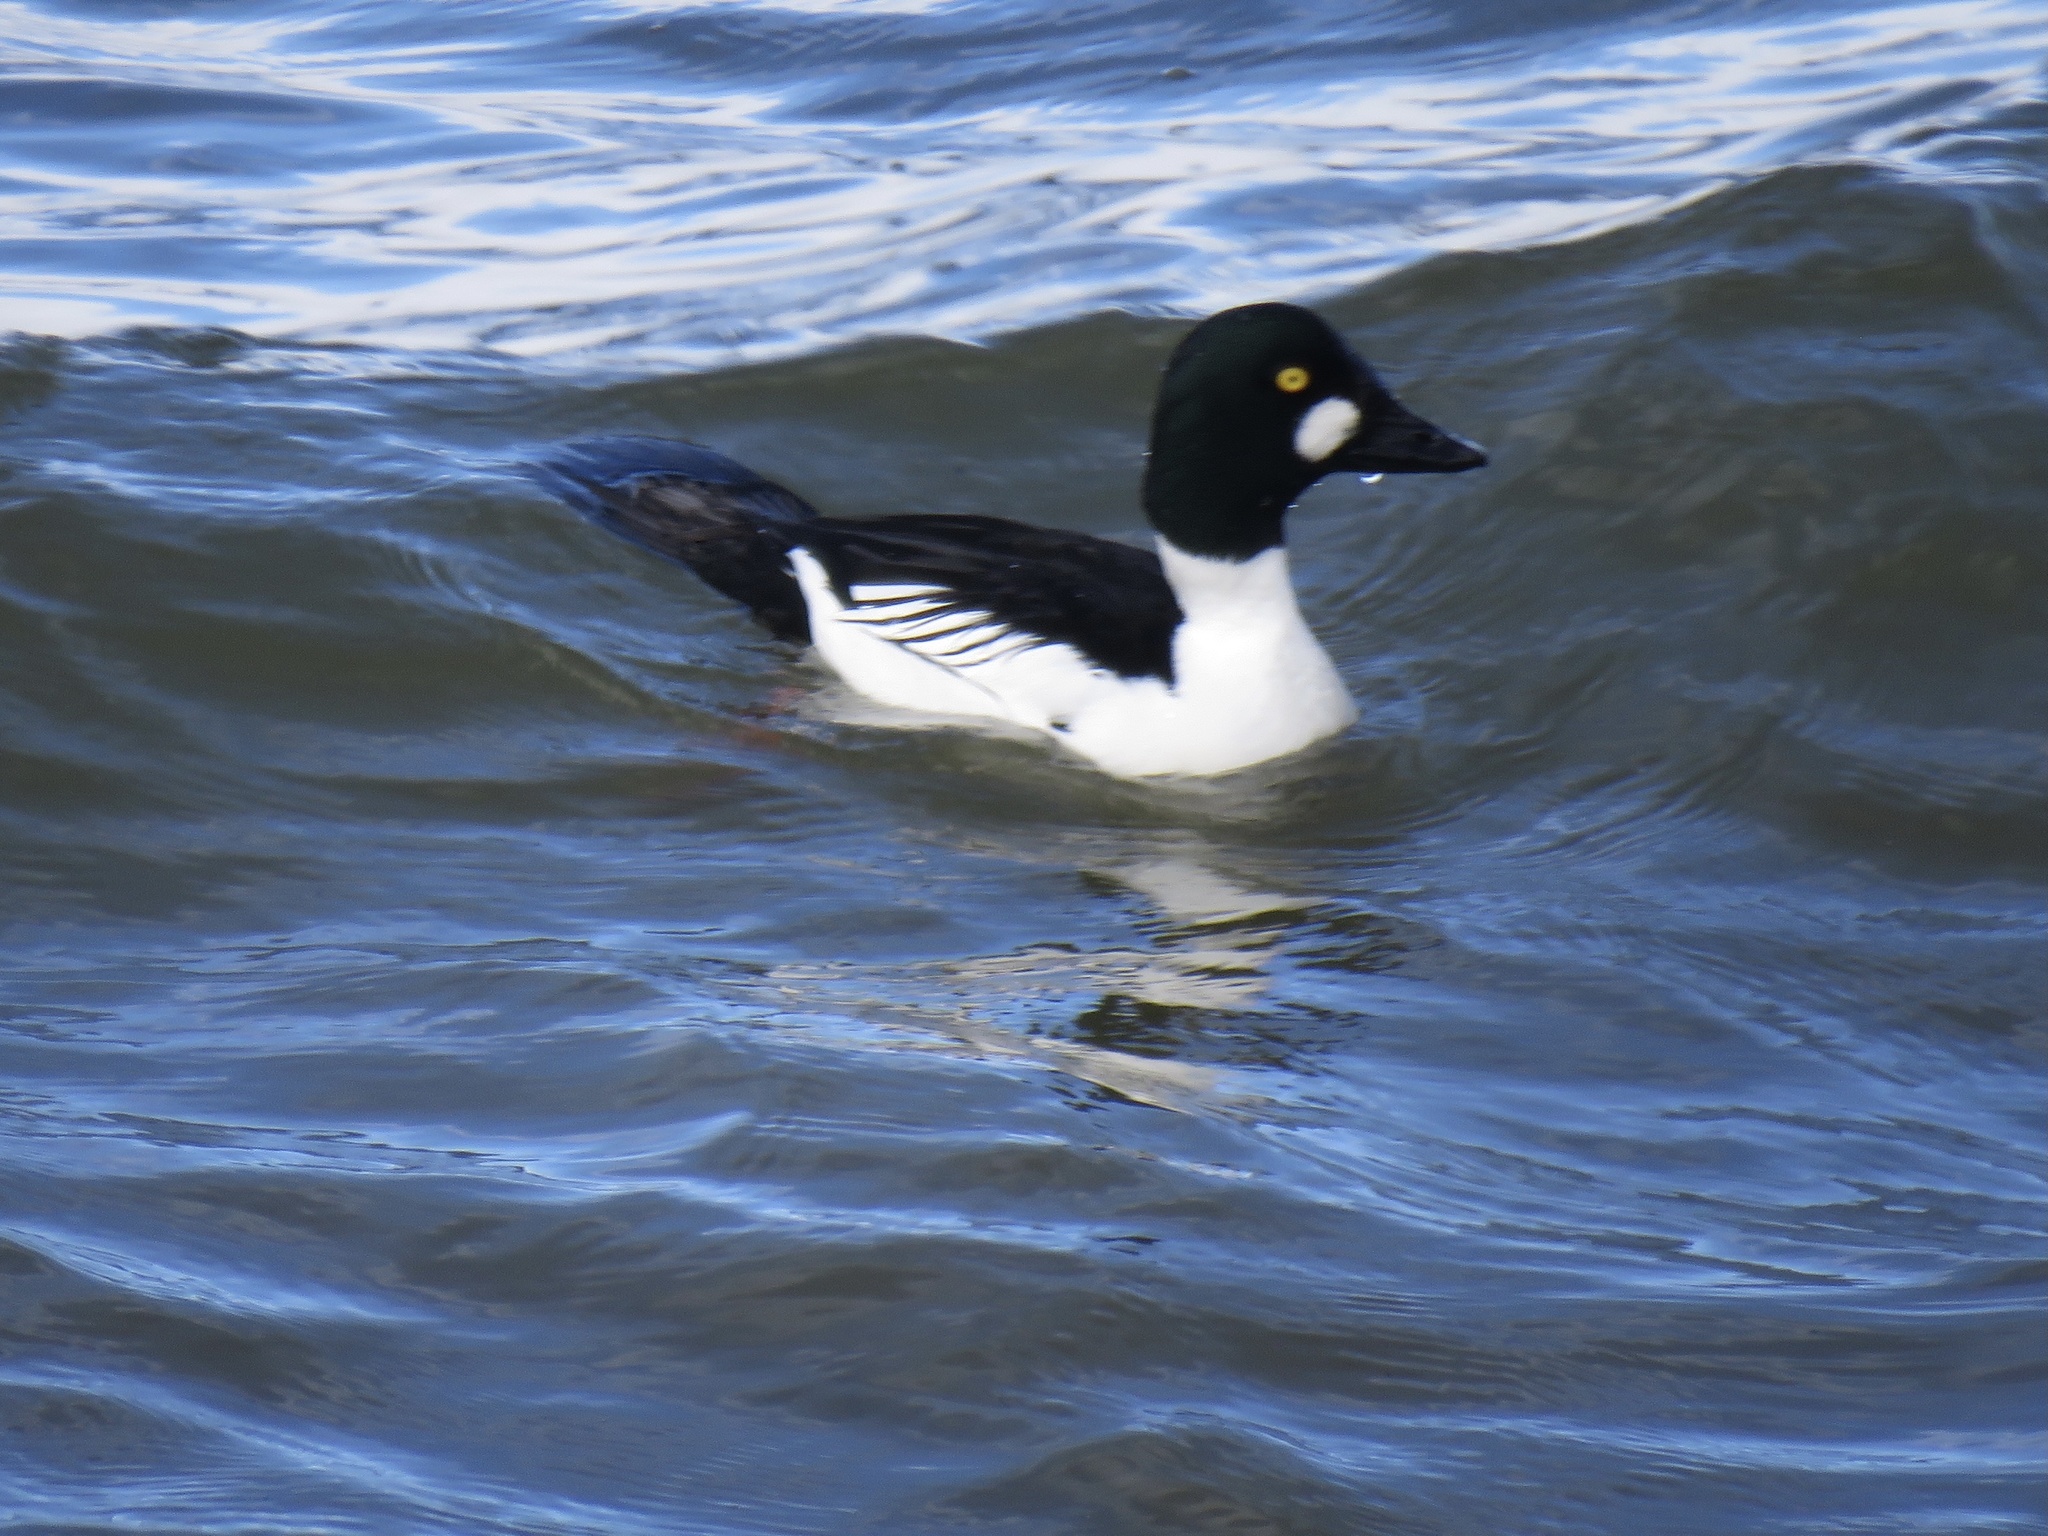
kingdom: Animalia
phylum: Chordata
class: Aves
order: Anseriformes
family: Anatidae
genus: Bucephala
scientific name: Bucephala clangula
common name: Common goldeneye
